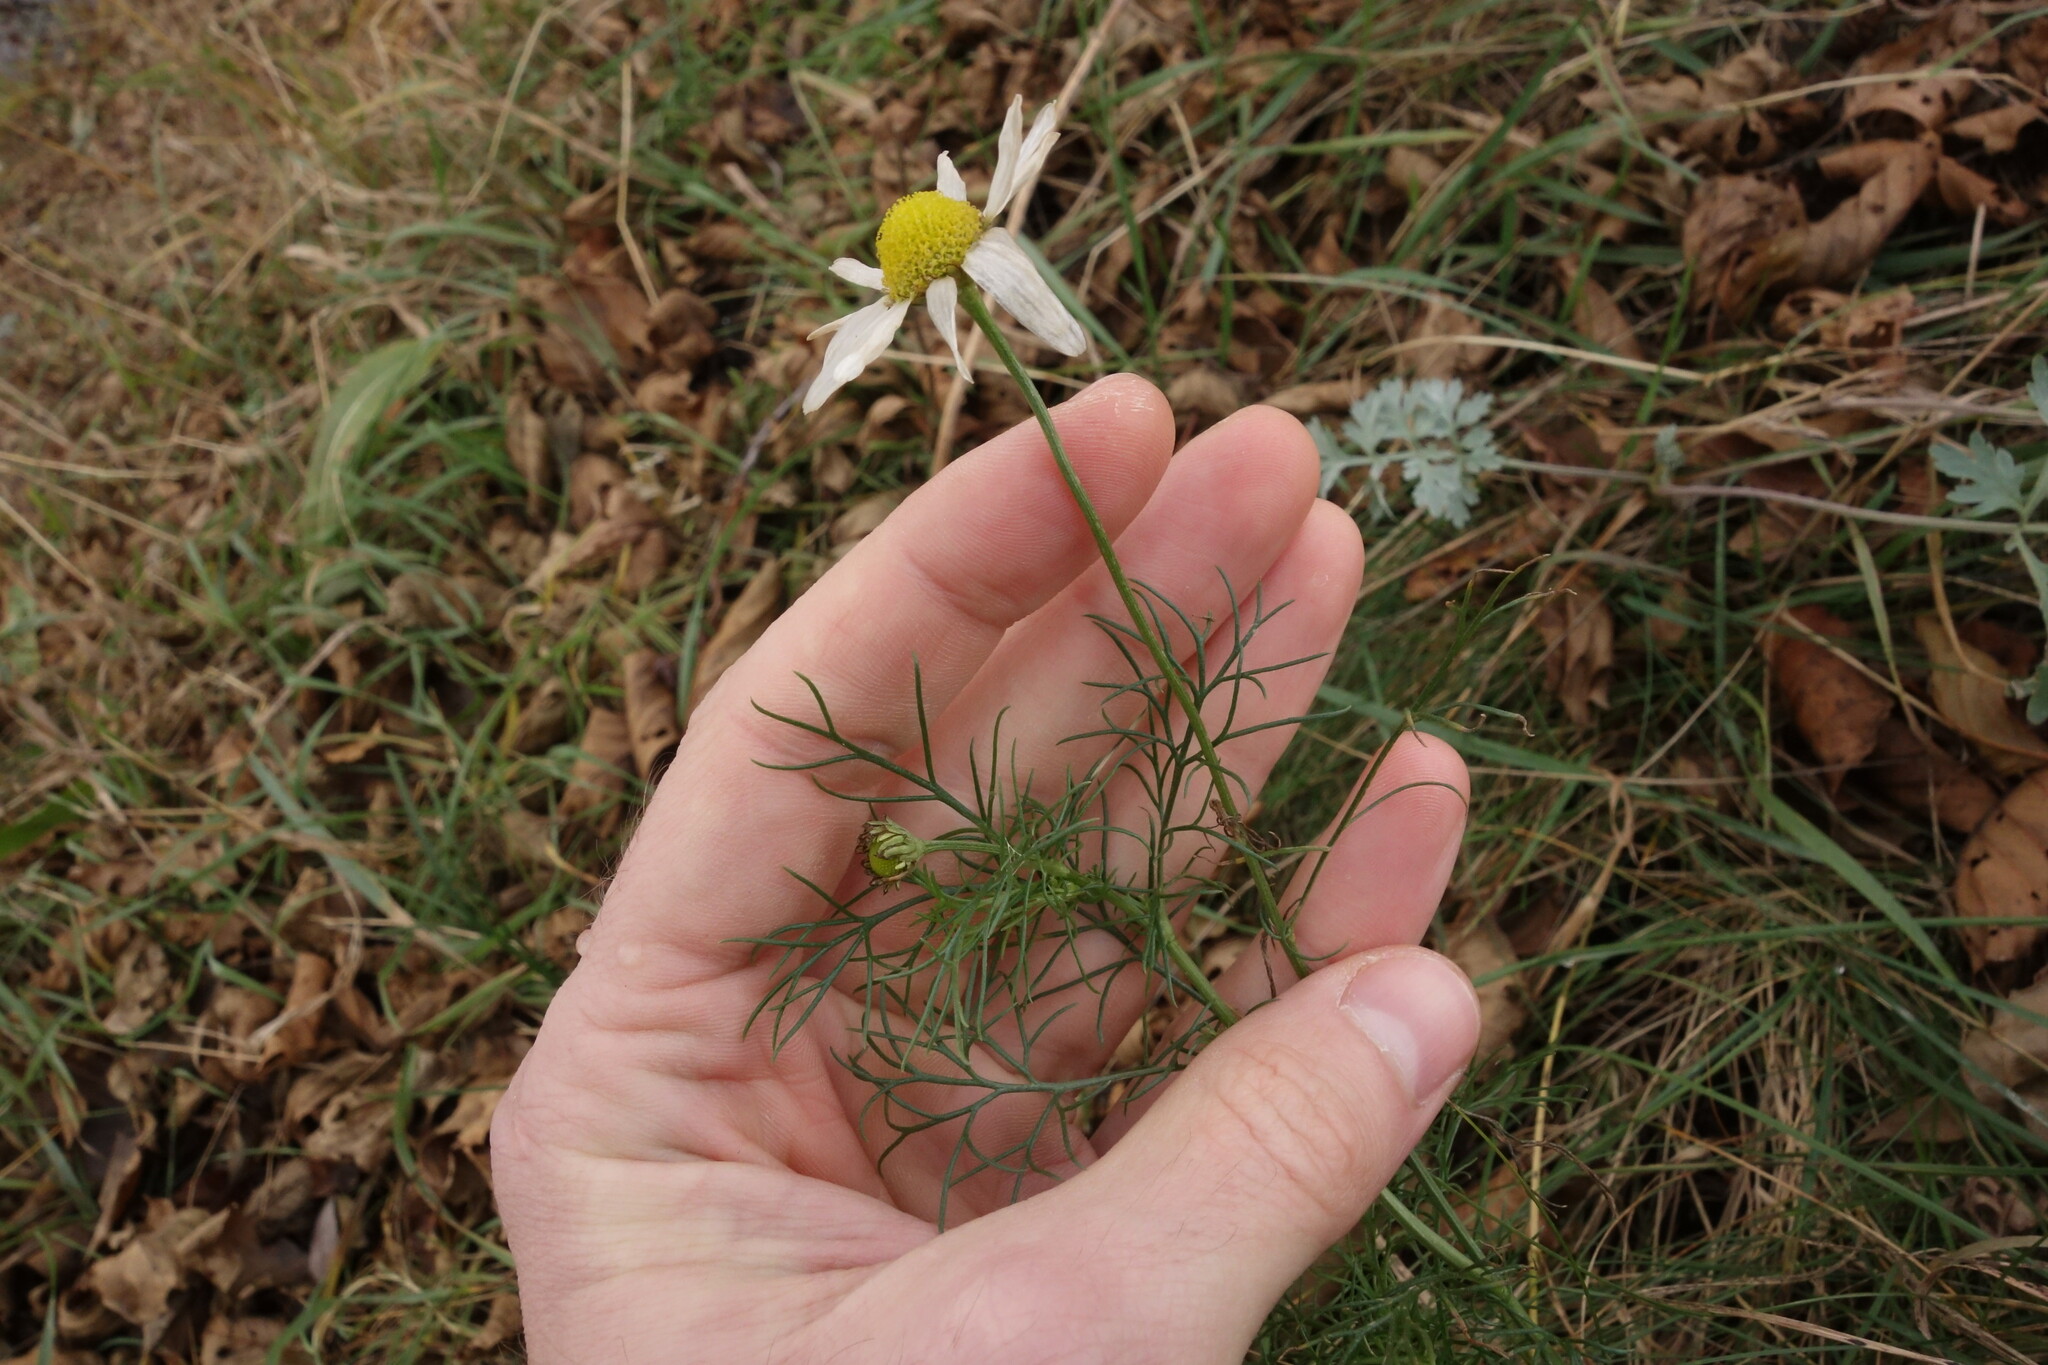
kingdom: Plantae
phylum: Tracheophyta
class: Magnoliopsida
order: Asterales
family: Asteraceae
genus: Tripleurospermum
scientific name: Tripleurospermum inodorum
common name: Scentless mayweed
